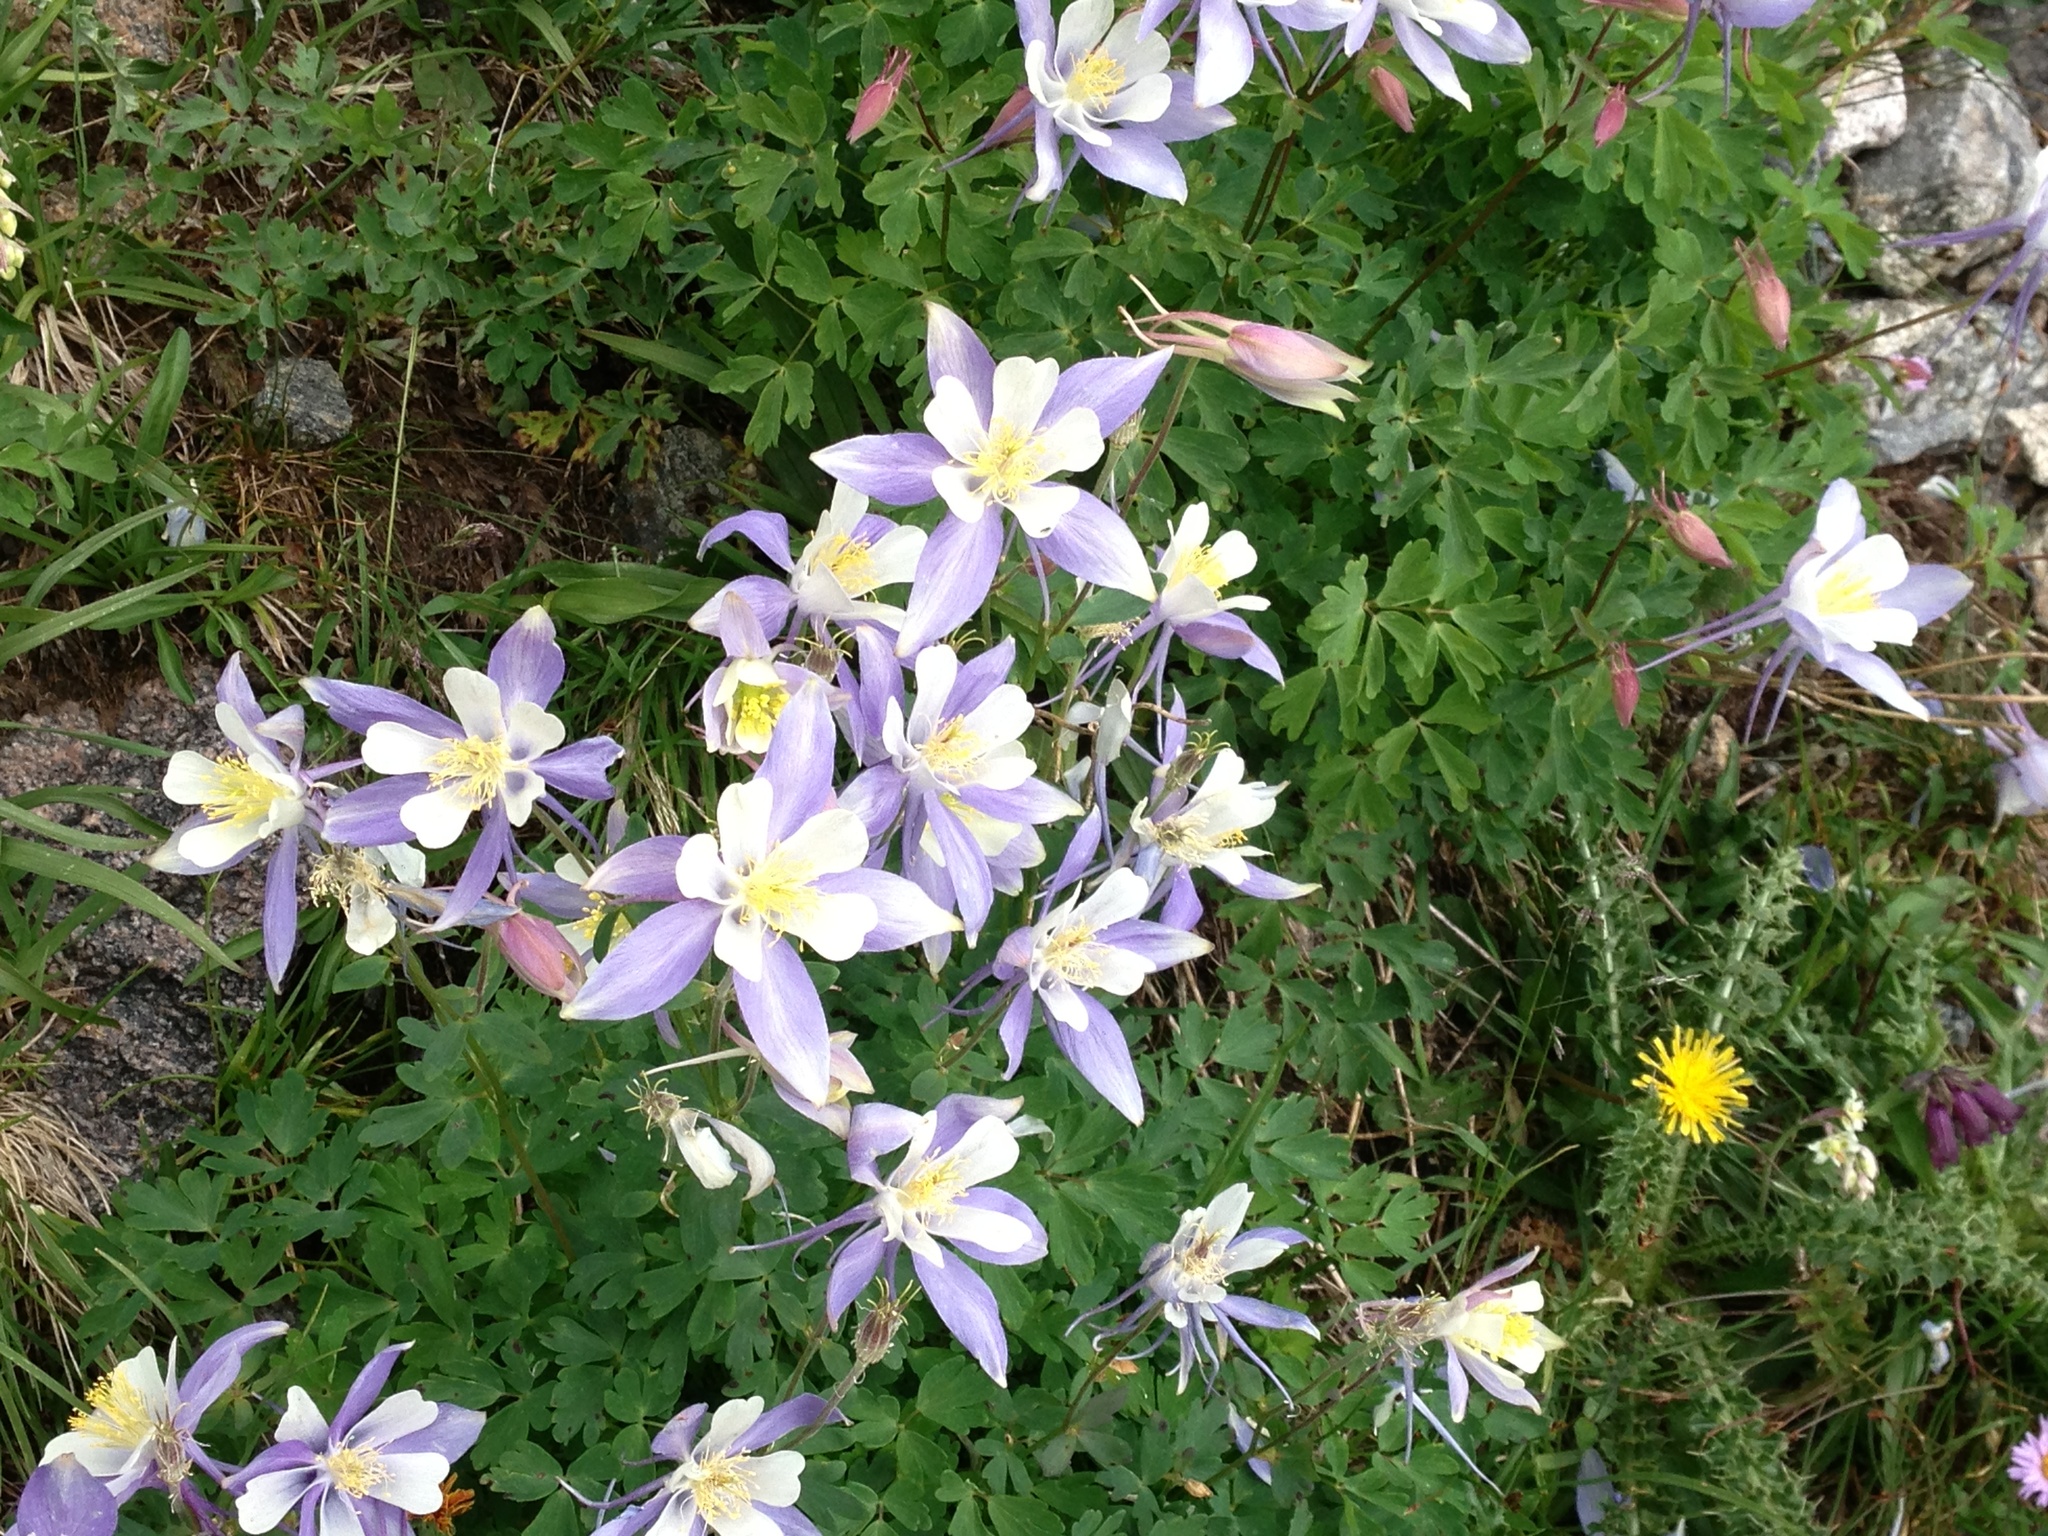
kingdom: Plantae
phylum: Tracheophyta
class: Magnoliopsida
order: Ranunculales
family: Ranunculaceae
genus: Aquilegia
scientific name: Aquilegia coerulea
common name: Rocky mountain columbine
